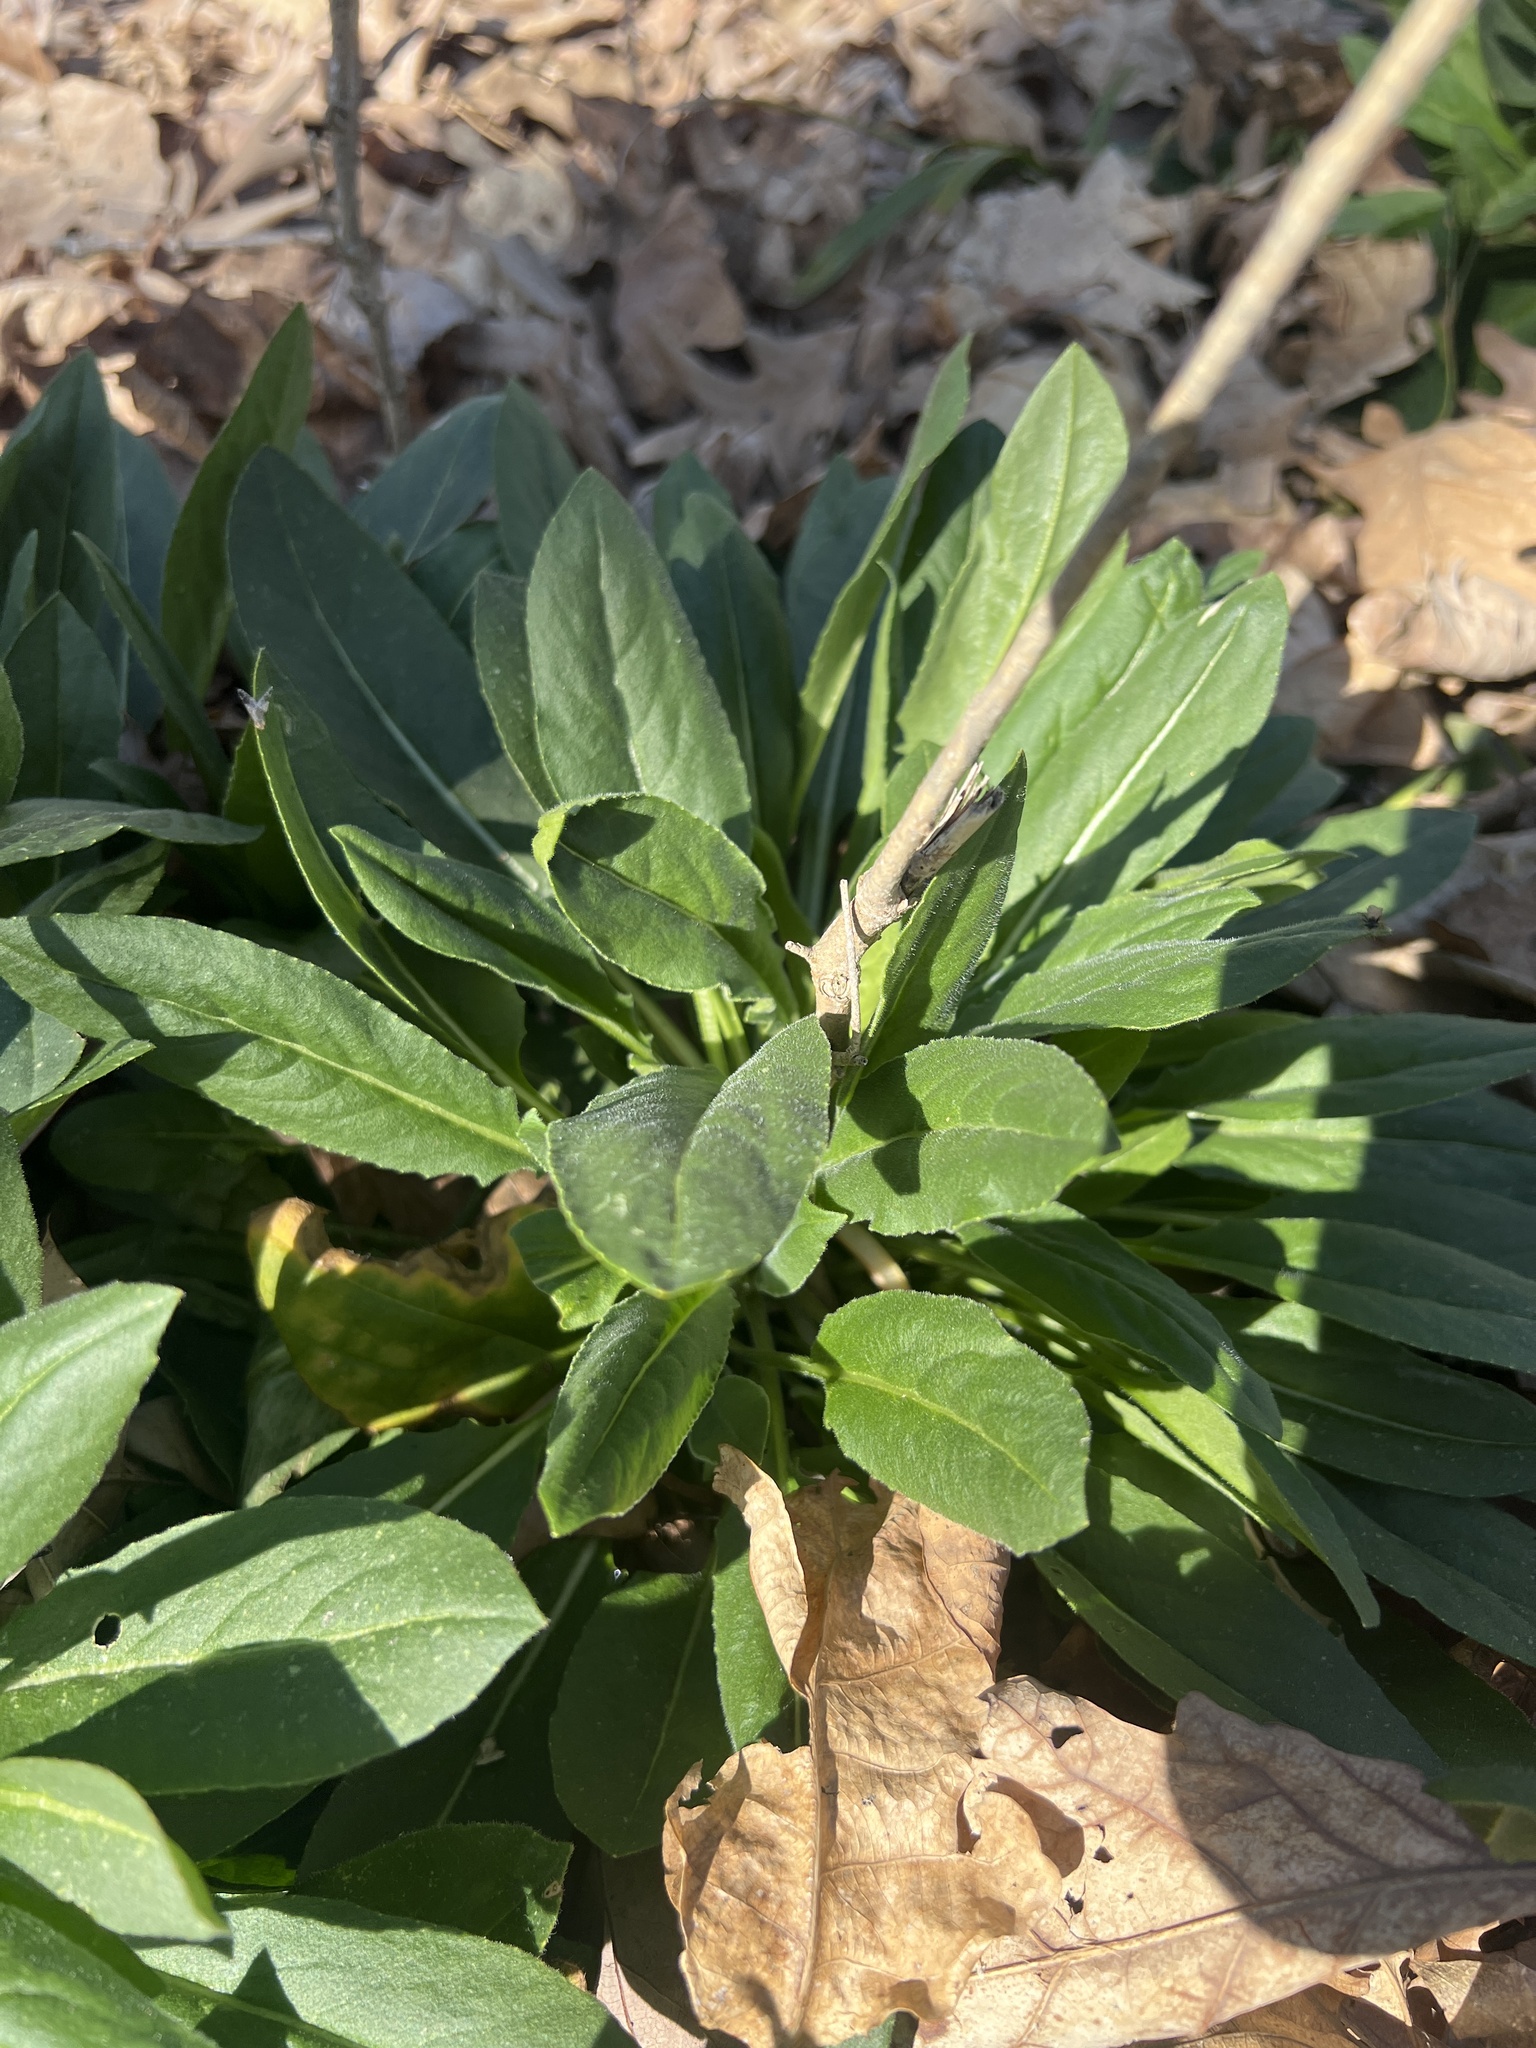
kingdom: Plantae
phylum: Tracheophyta
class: Magnoliopsida
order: Brassicales
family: Brassicaceae
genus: Hesperis
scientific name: Hesperis matronalis
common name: Dame's-violet
